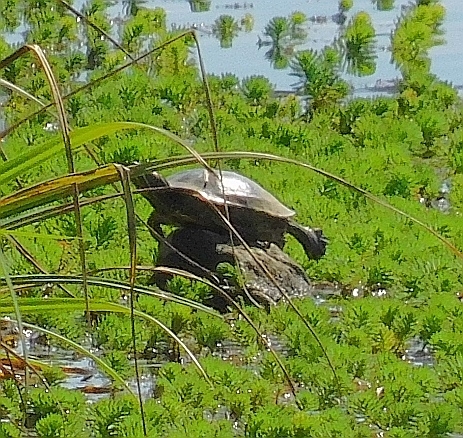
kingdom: Animalia
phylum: Chordata
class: Testudines
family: Emydidae
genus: Trachemys
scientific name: Trachemys scripta
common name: Slider
